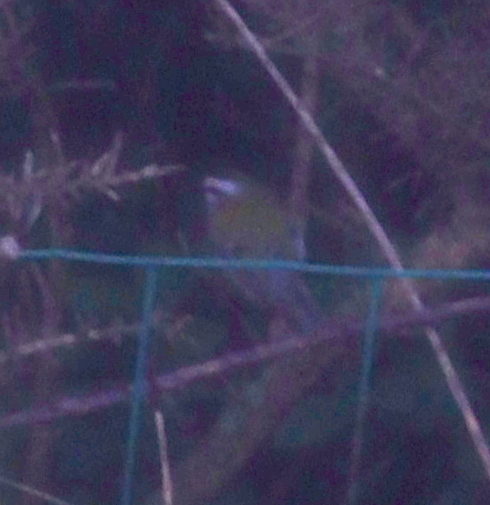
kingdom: Animalia
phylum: Chordata
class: Aves
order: Passeriformes
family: Regulidae
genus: Regulus
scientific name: Regulus ignicapilla
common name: Firecrest
